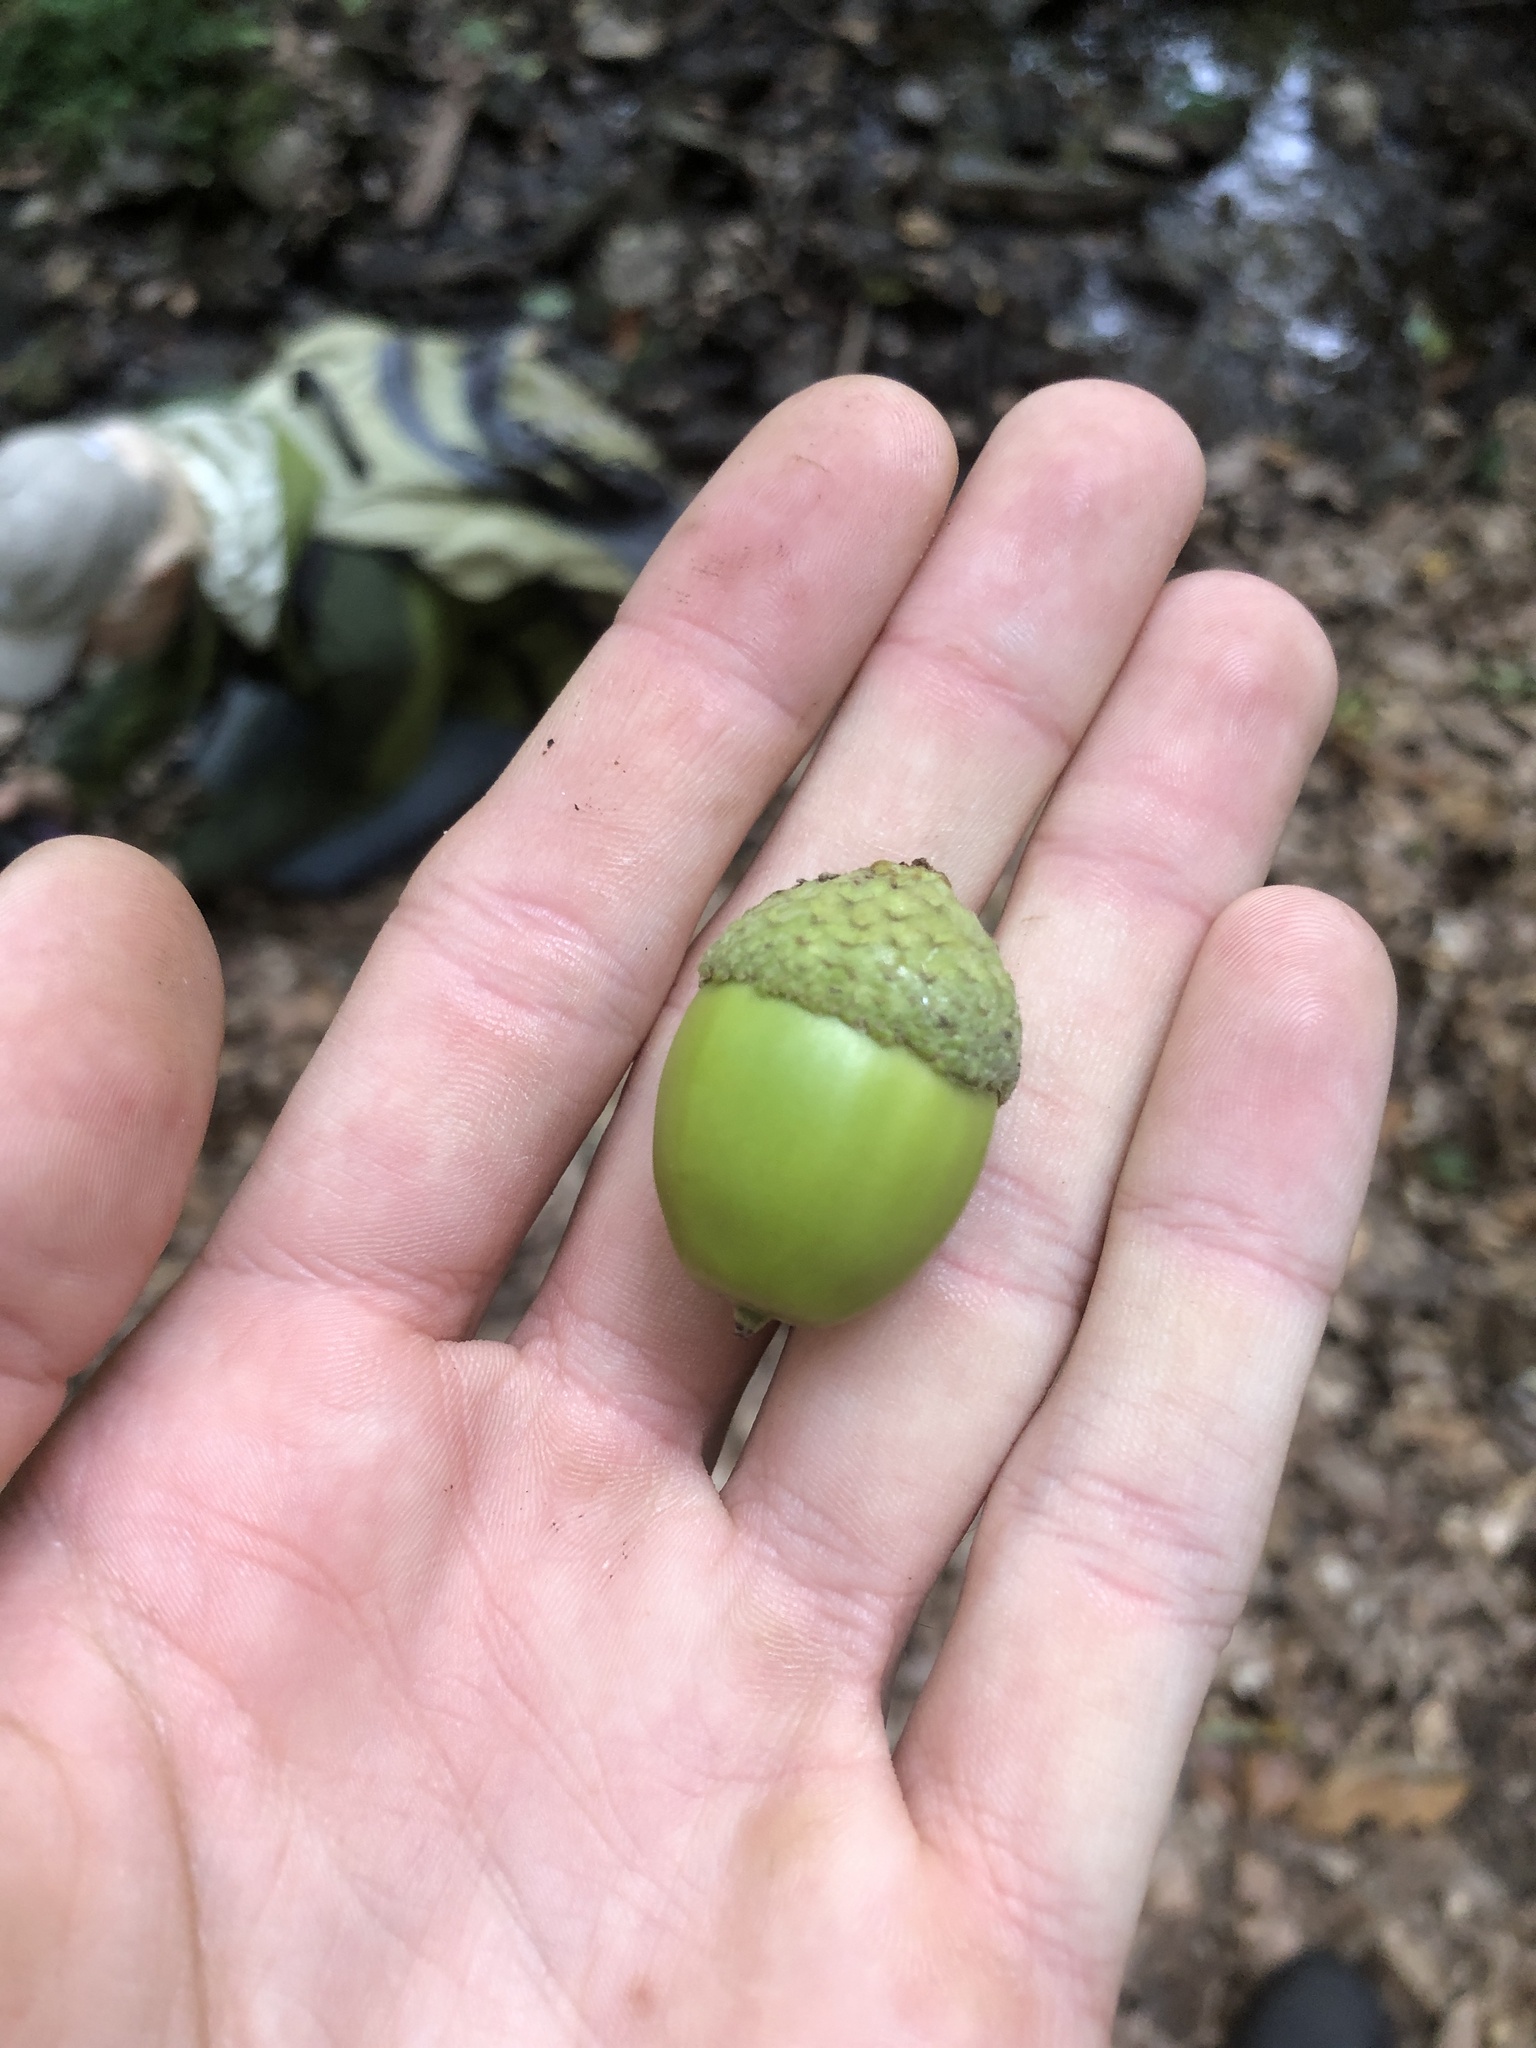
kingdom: Plantae
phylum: Tracheophyta
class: Magnoliopsida
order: Fagales
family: Fagaceae
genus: Quercus
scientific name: Quercus montana
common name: Chestnut oak
